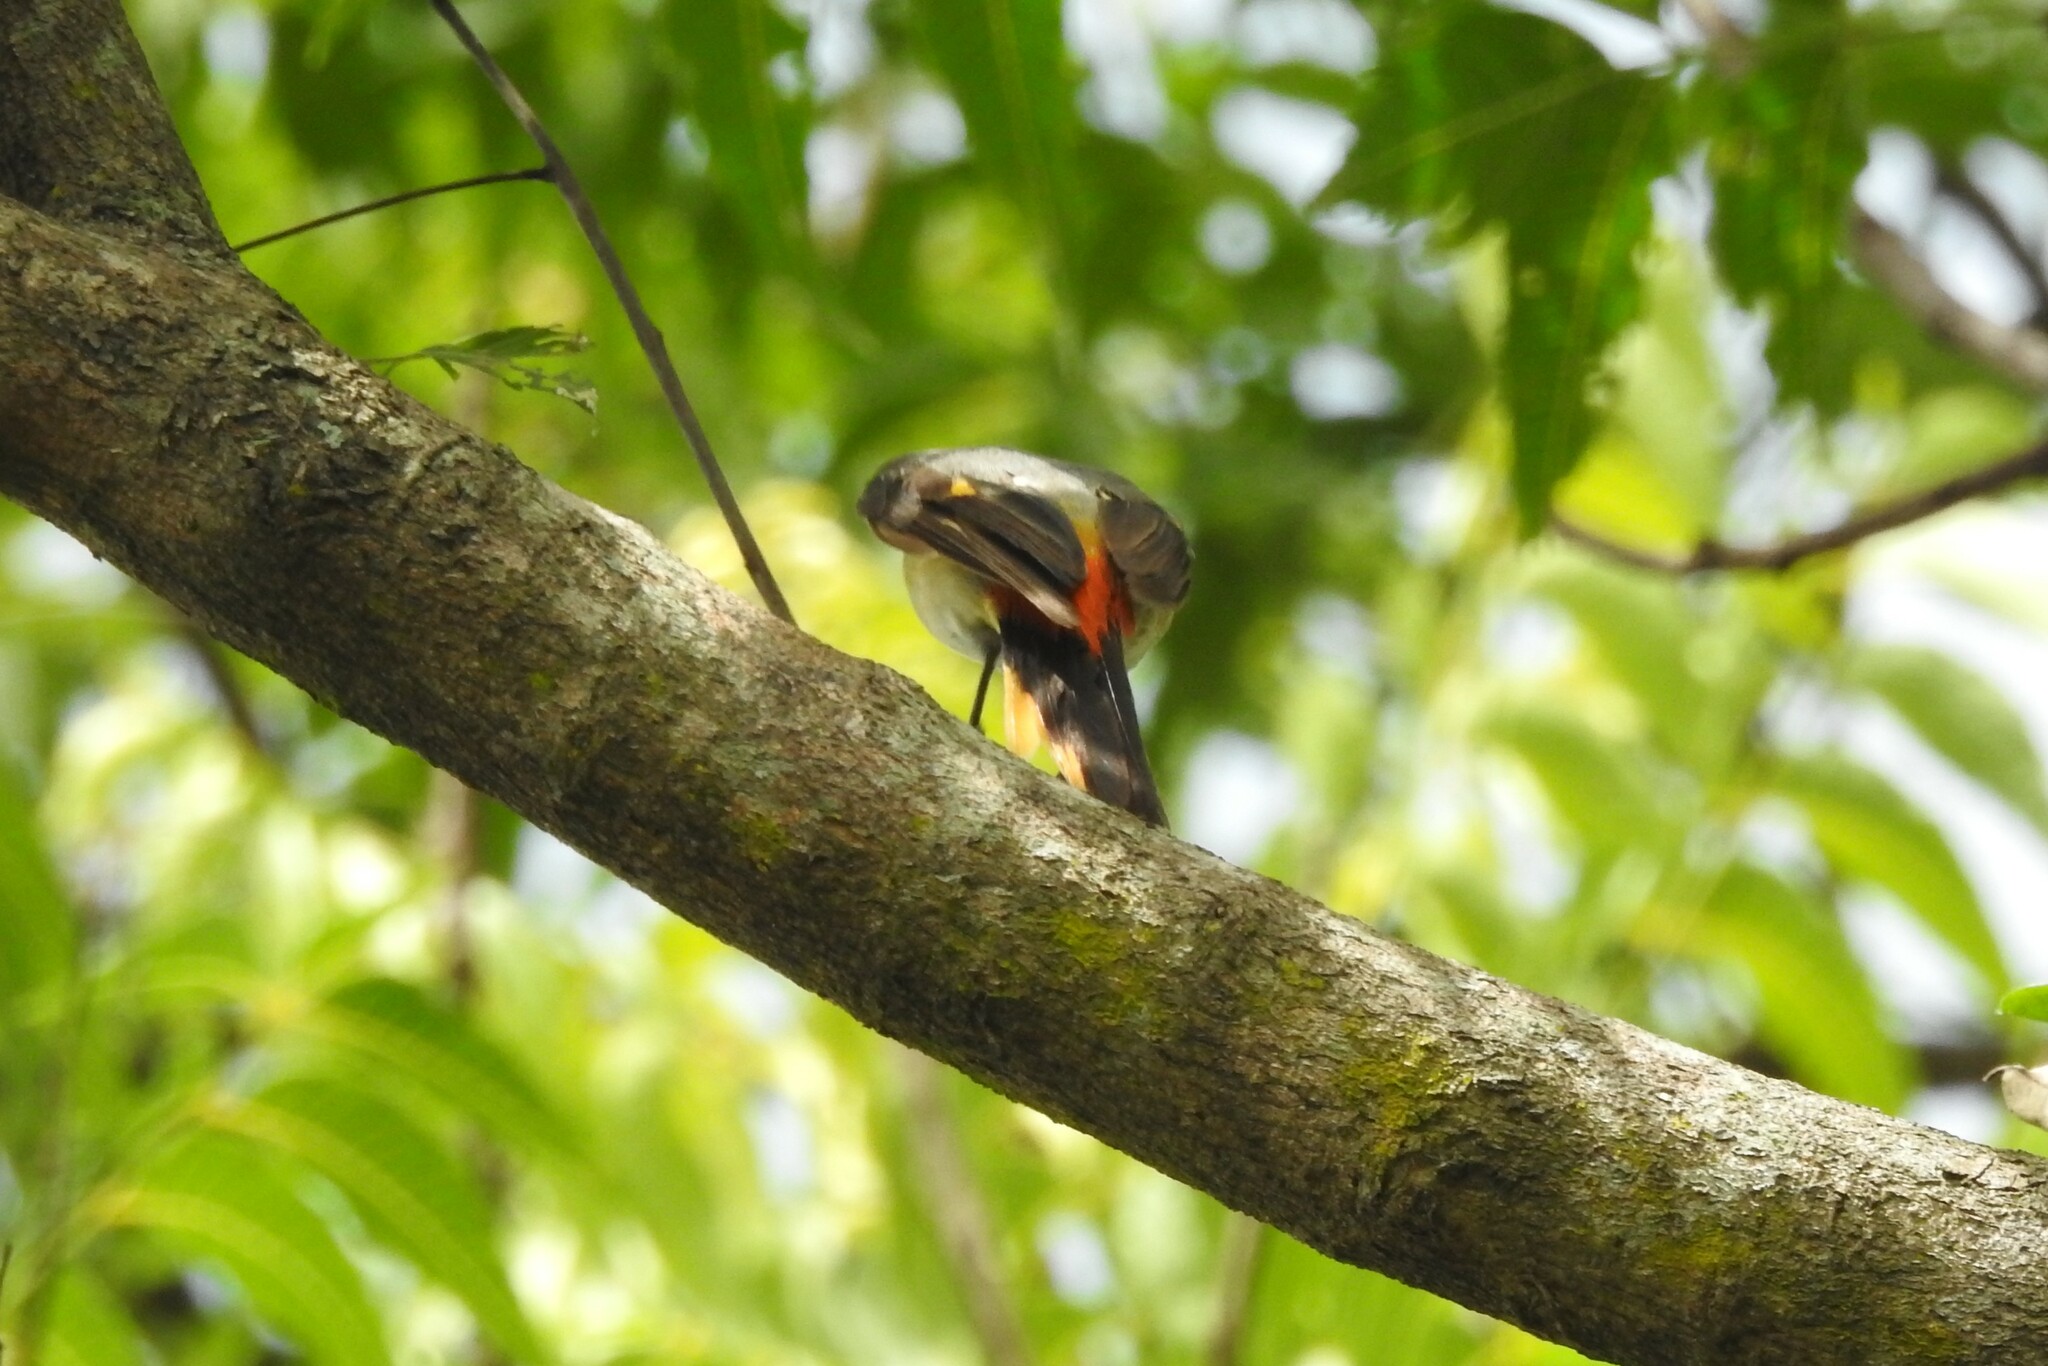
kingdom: Animalia
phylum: Chordata
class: Aves
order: Passeriformes
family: Campephagidae
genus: Pericrocotus
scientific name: Pericrocotus cinnamomeus
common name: Small minivet
